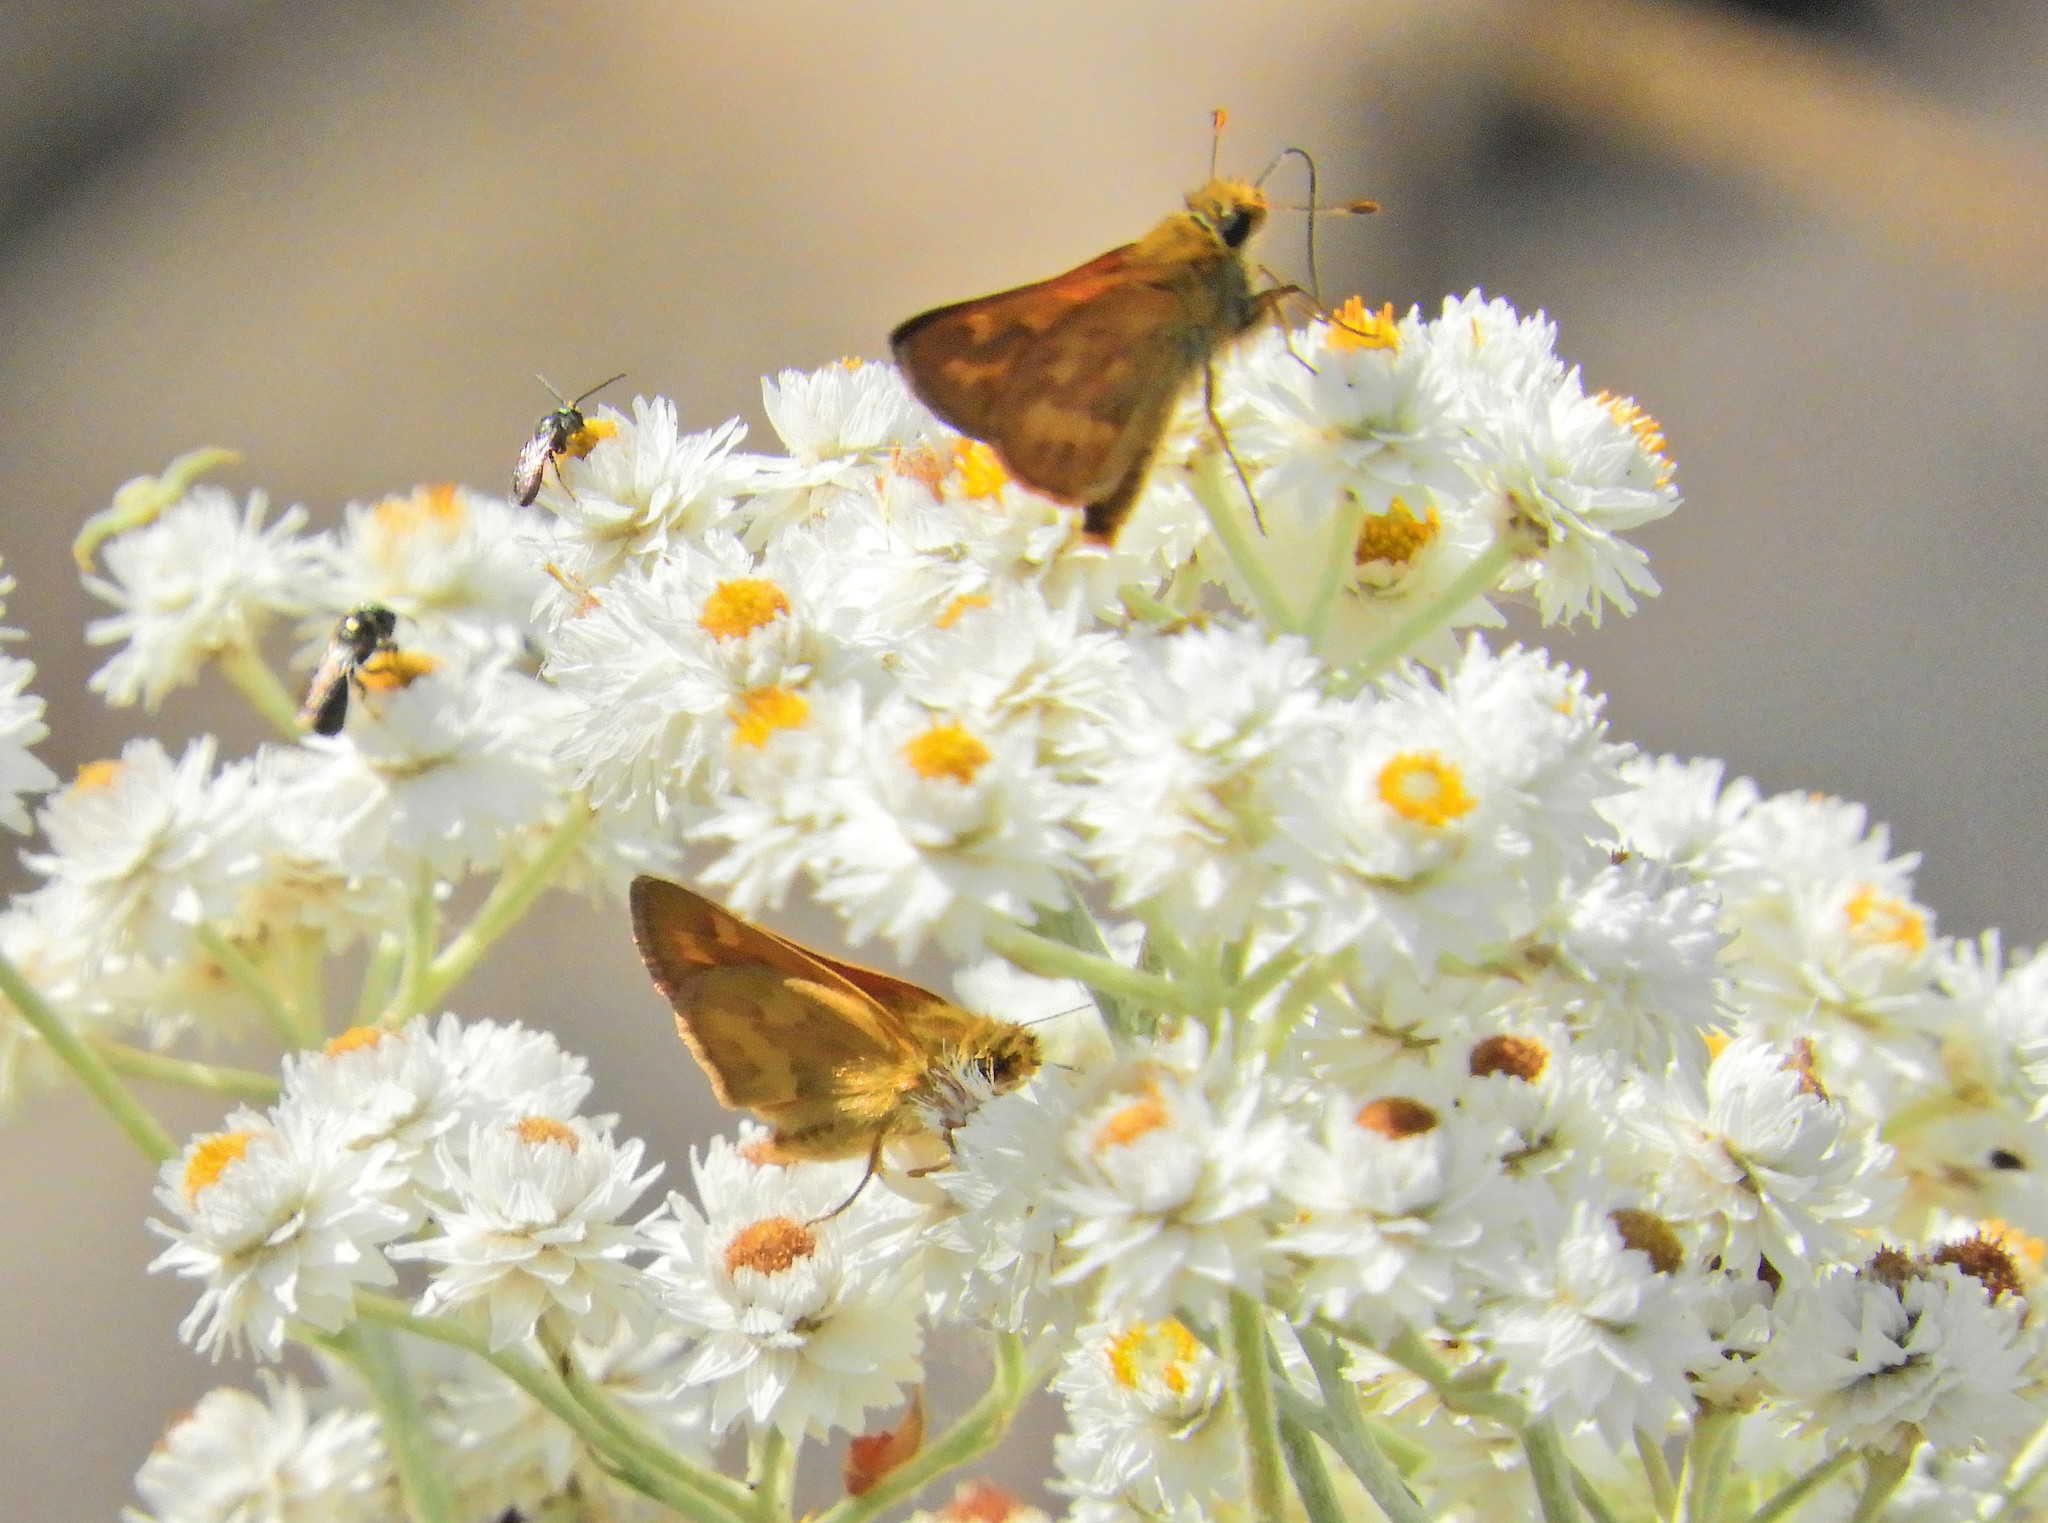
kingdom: Animalia
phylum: Arthropoda
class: Insecta
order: Lepidoptera
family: Hesperiidae
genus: Ochlodes
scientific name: Ochlodes sylvanoides
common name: Woodland skipper
